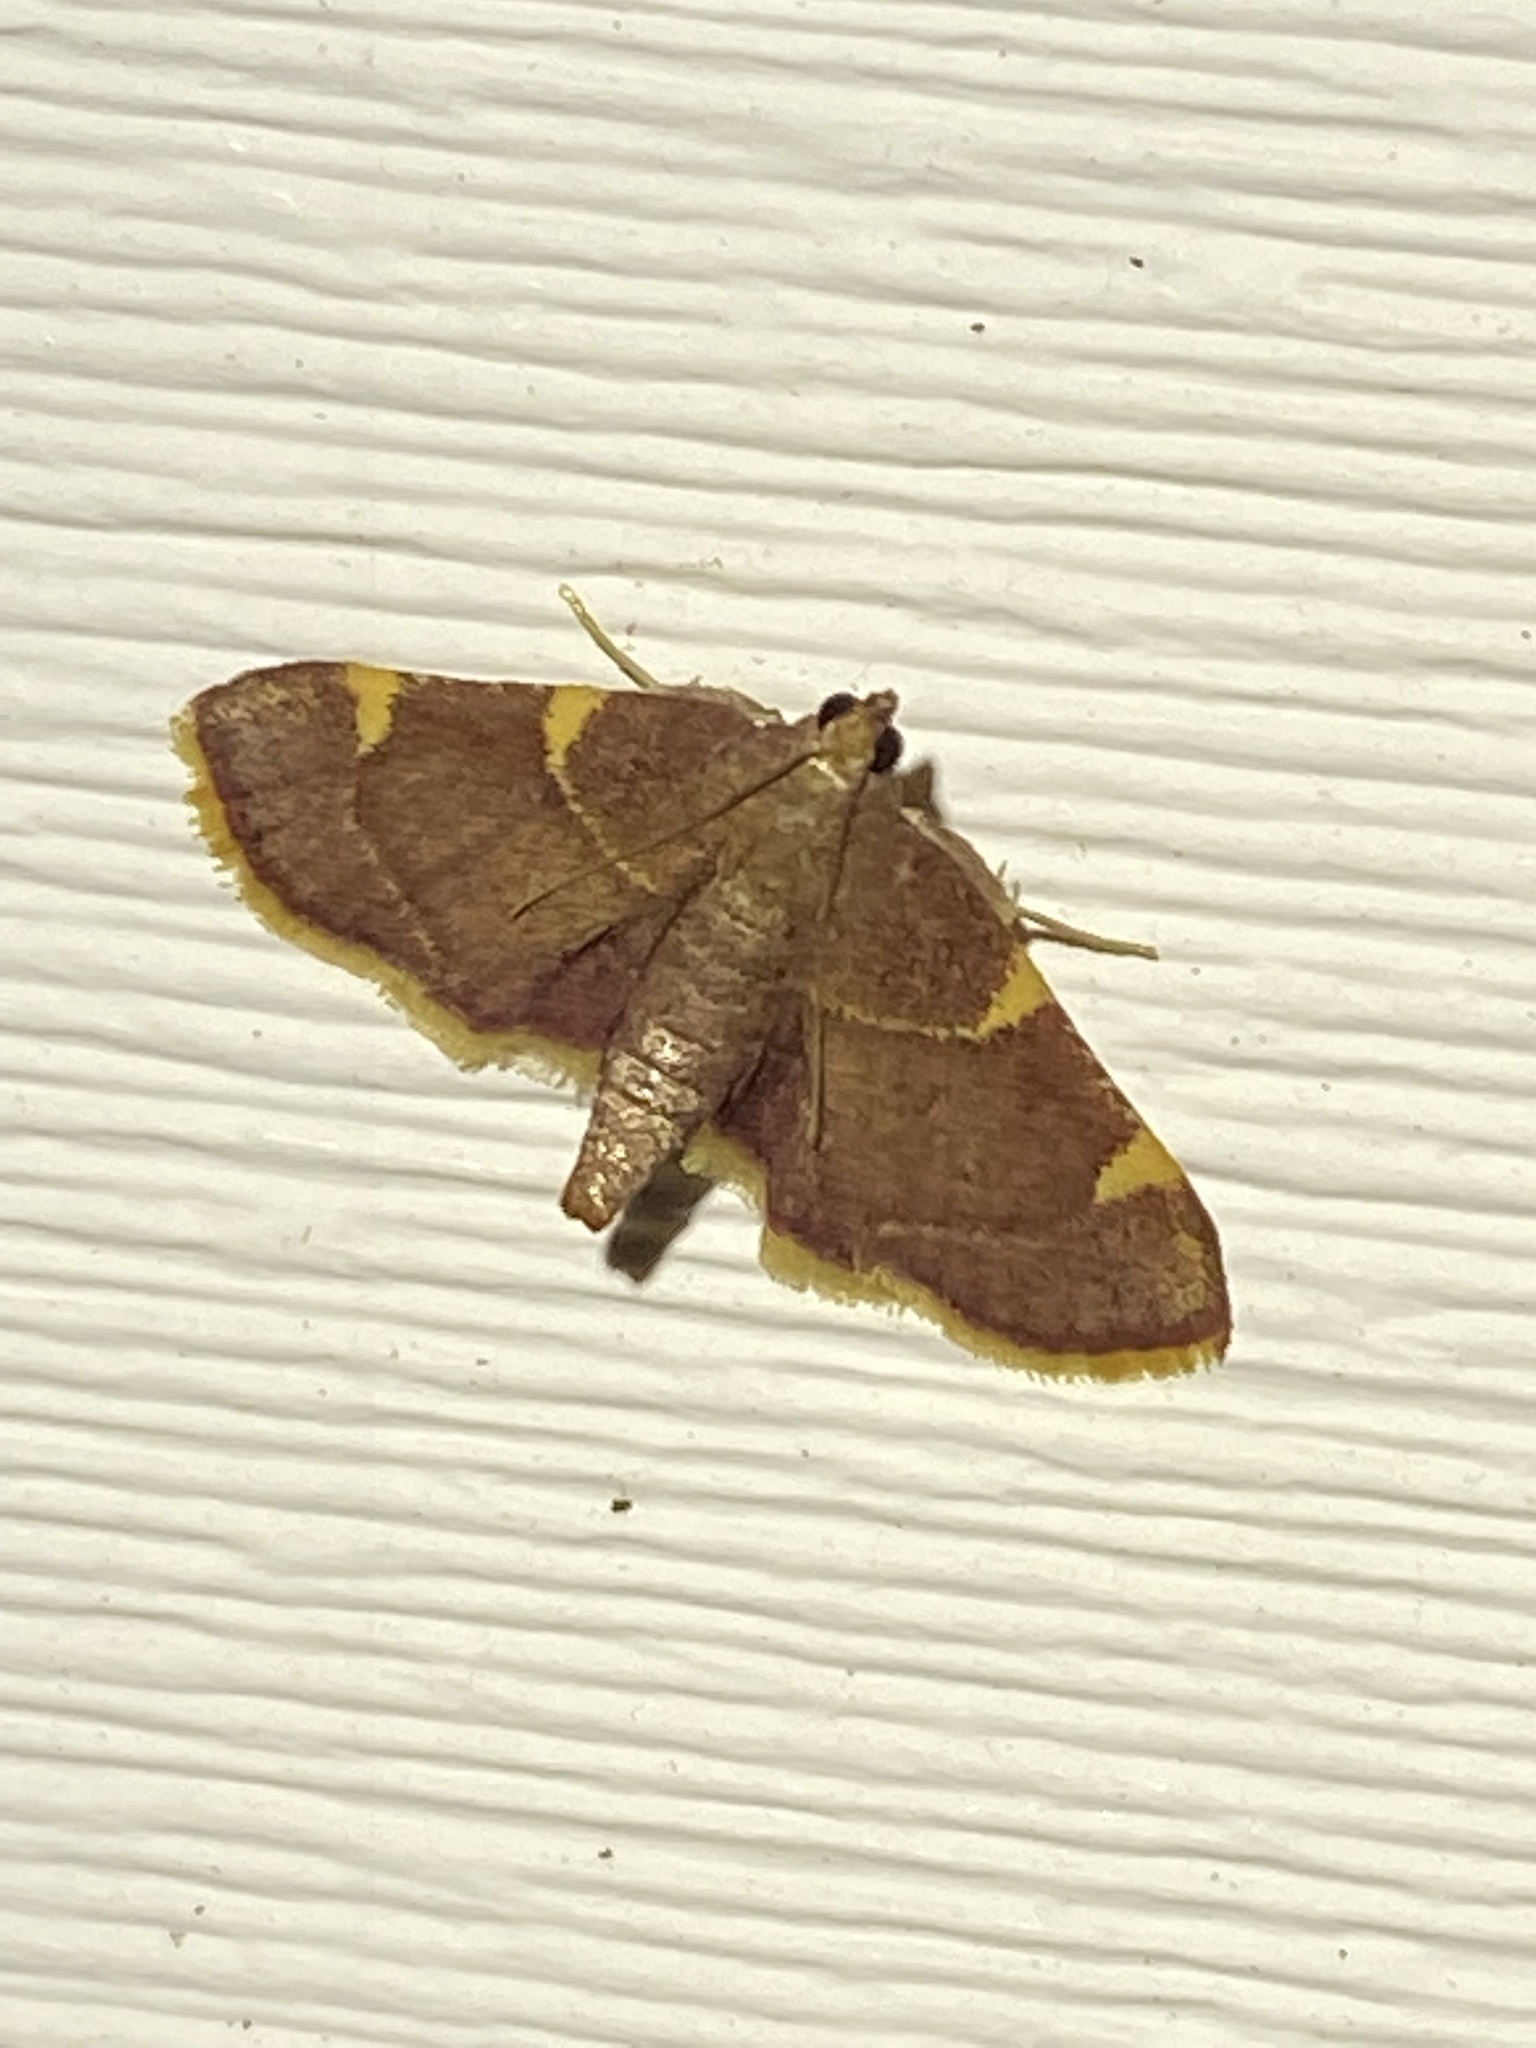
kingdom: Animalia
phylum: Arthropoda
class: Insecta
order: Lepidoptera
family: Pyralidae
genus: Hypsopygia
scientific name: Hypsopygia olinalis
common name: Yellow-fringed dolichomia moth
